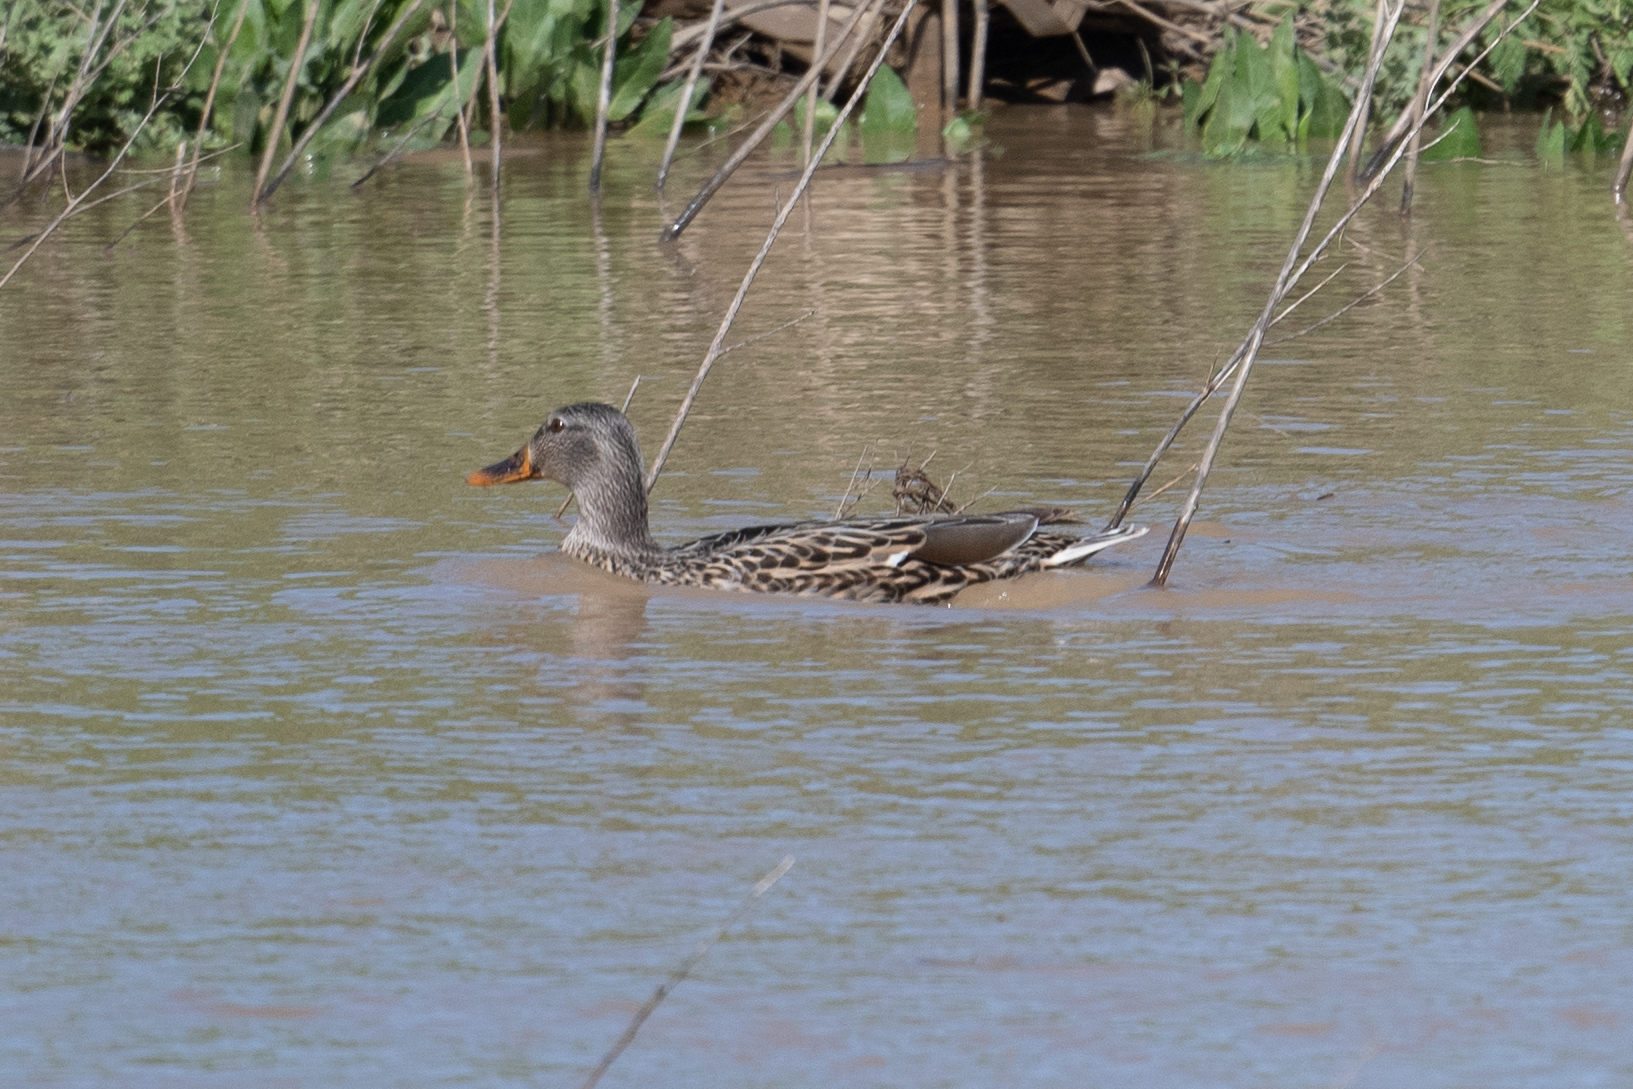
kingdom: Animalia
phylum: Chordata
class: Aves
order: Anseriformes
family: Anatidae
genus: Anas
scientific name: Anas platyrhynchos
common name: Mallard
